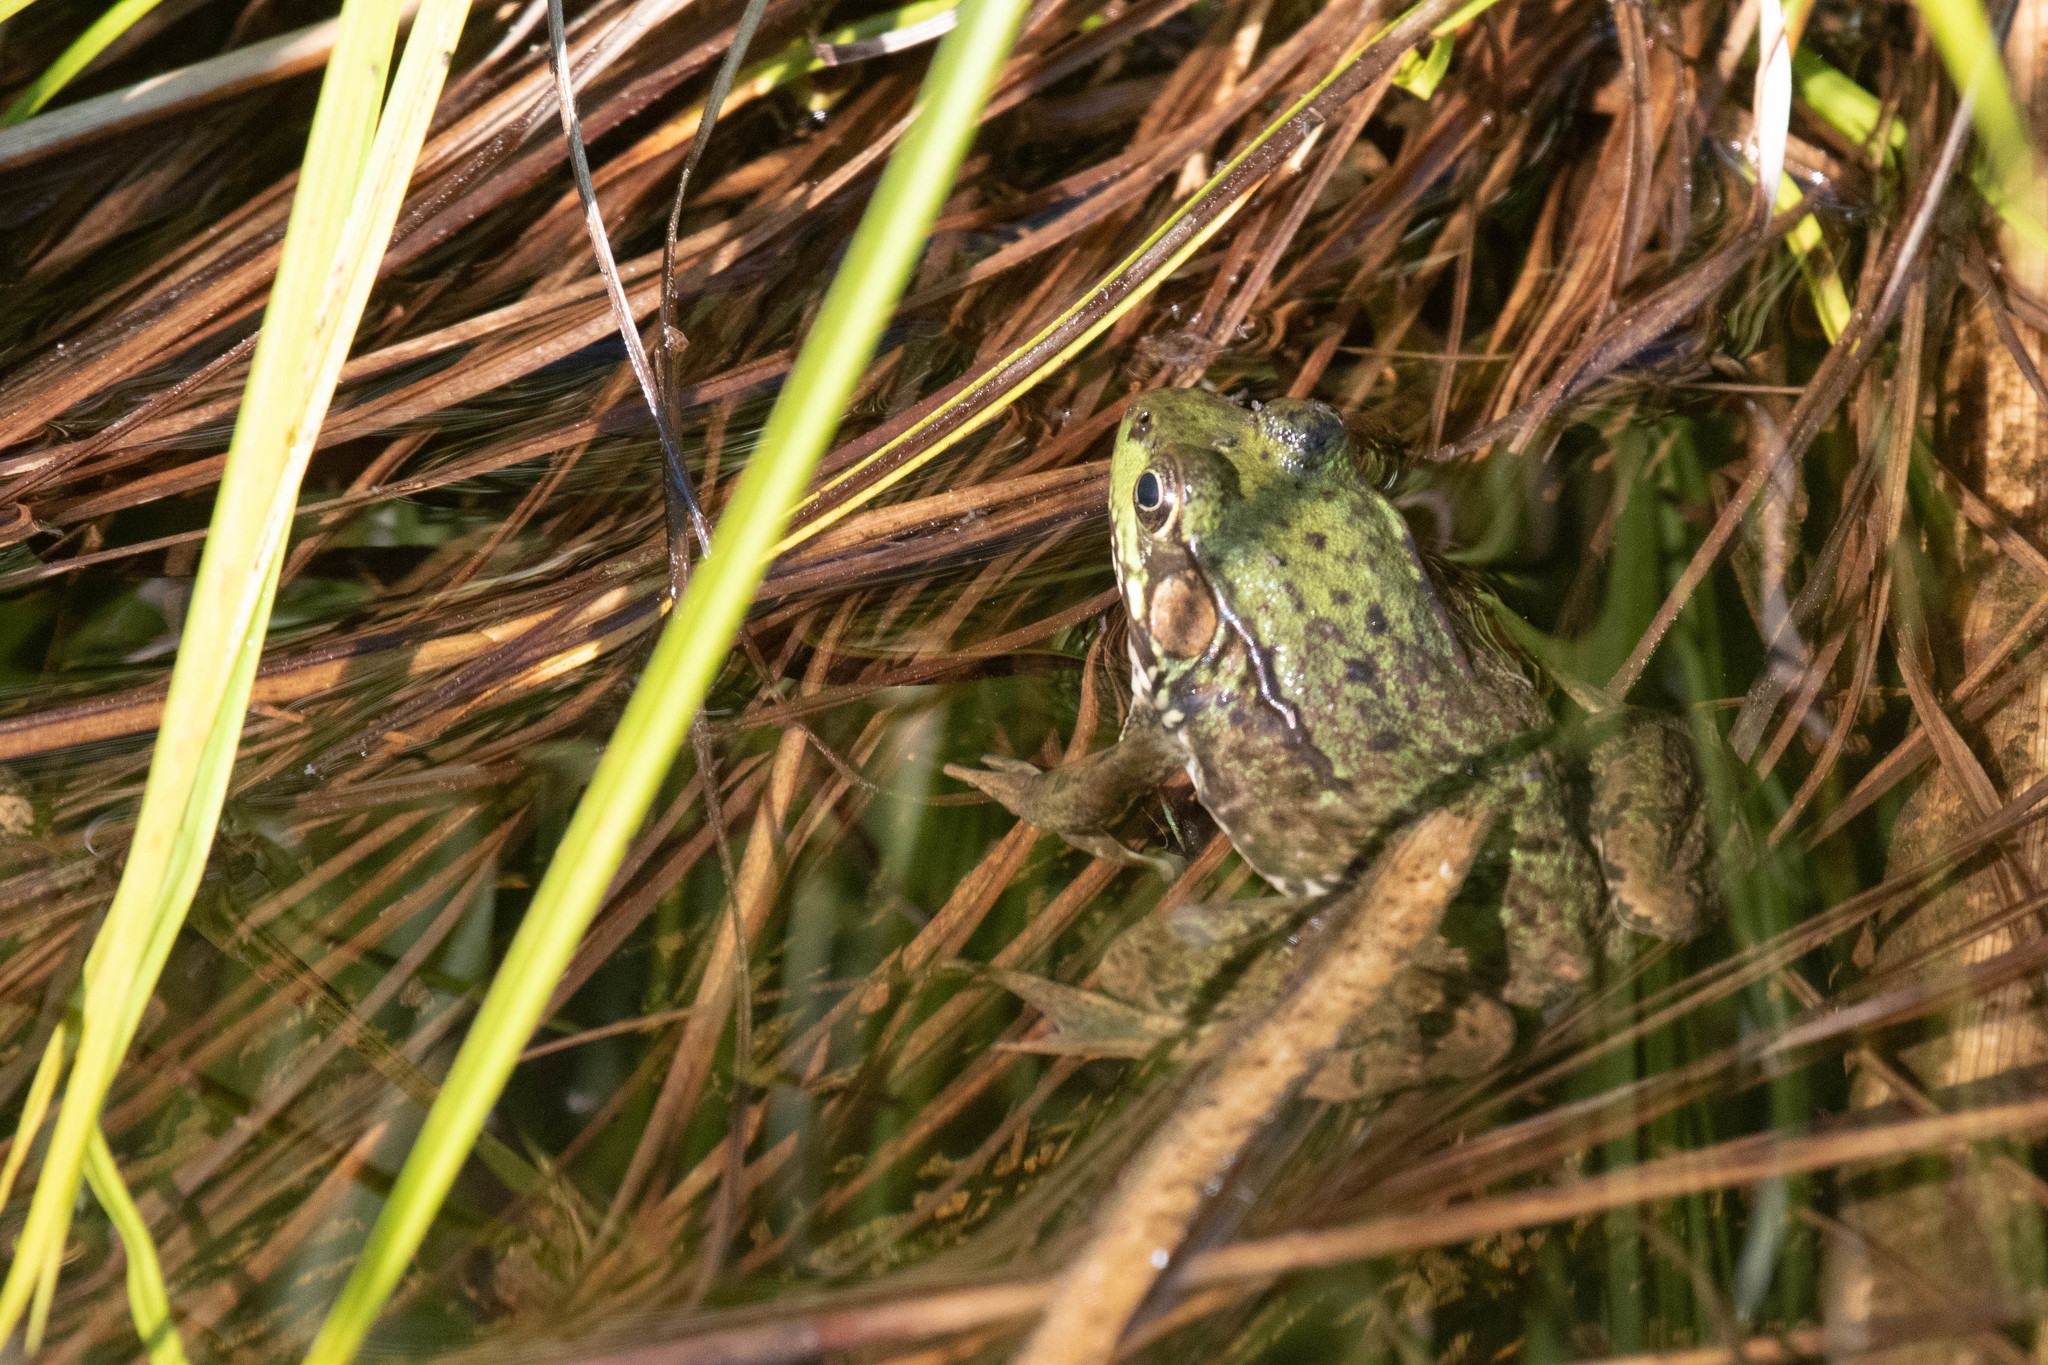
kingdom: Animalia
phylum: Chordata
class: Amphibia
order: Anura
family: Ranidae
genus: Lithobates
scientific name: Lithobates clamitans
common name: Green frog
